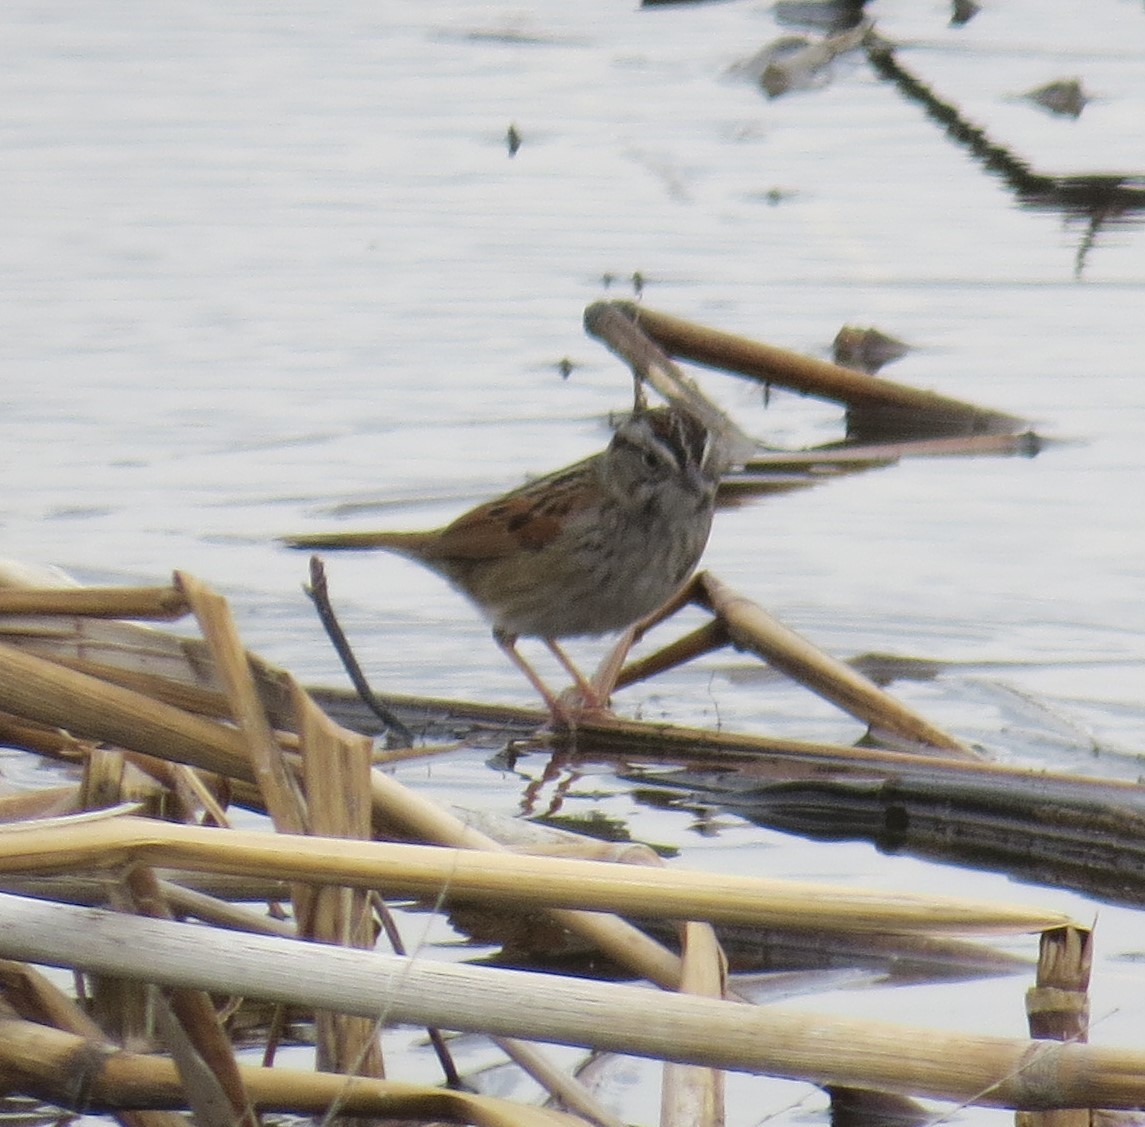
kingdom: Animalia
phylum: Chordata
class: Aves
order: Passeriformes
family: Passerellidae
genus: Melospiza
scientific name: Melospiza georgiana
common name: Swamp sparrow
